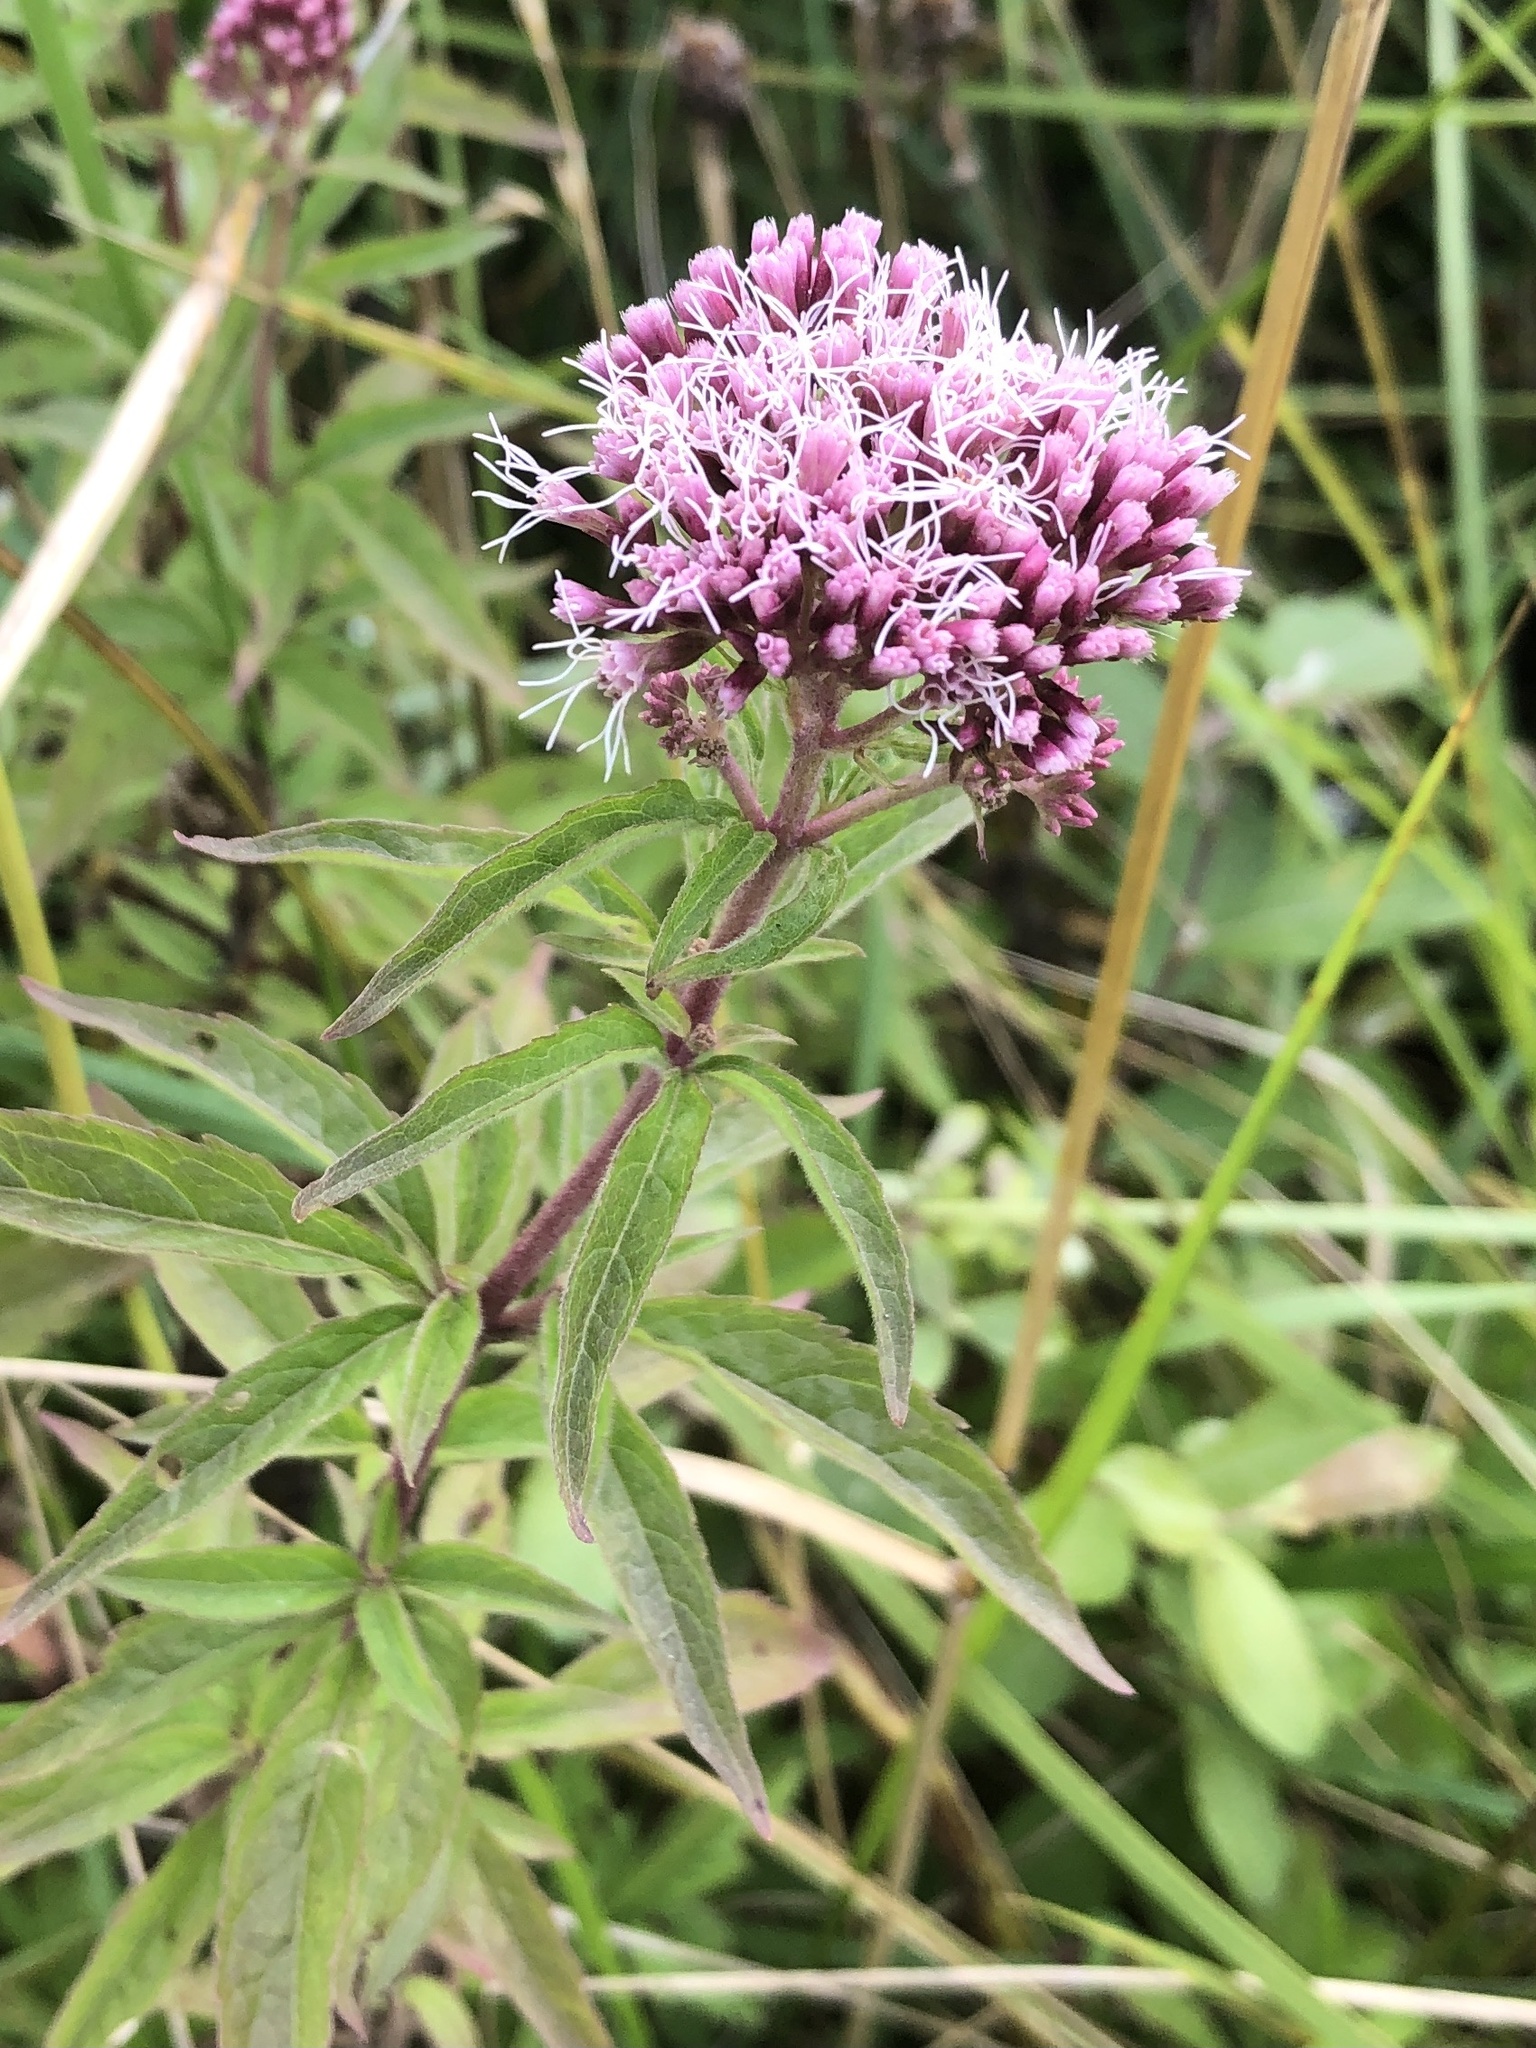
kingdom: Plantae
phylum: Tracheophyta
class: Magnoliopsida
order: Asterales
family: Asteraceae
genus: Eupatorium
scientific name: Eupatorium cannabinum
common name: Hemp-agrimony
